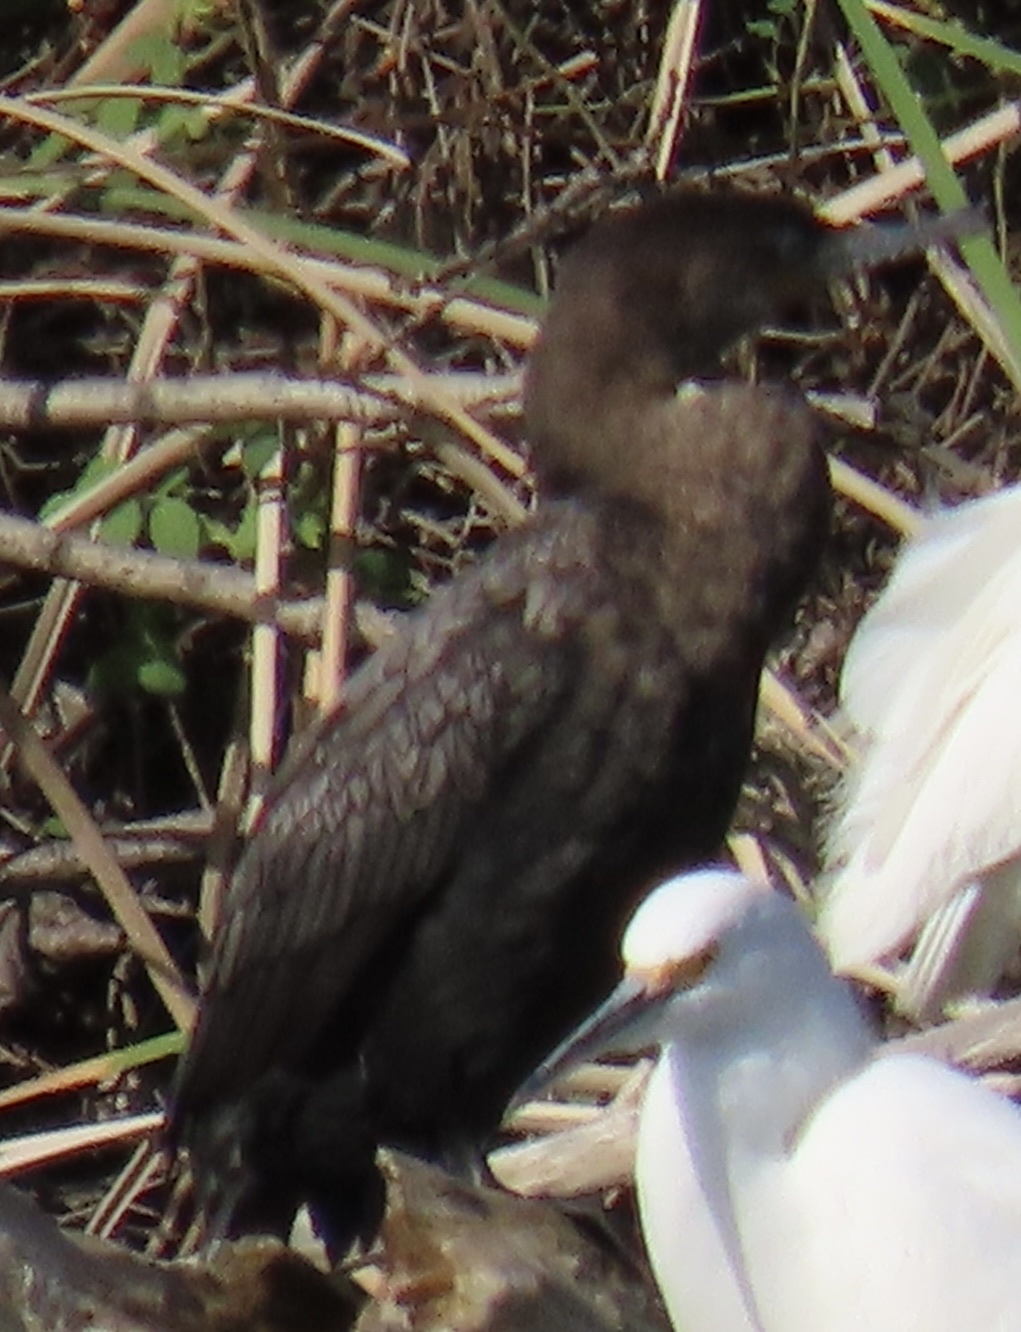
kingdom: Animalia
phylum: Chordata
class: Aves
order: Suliformes
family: Phalacrocoracidae
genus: Phalacrocorax
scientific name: Phalacrocorax brasilianus
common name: Neotropic cormorant
